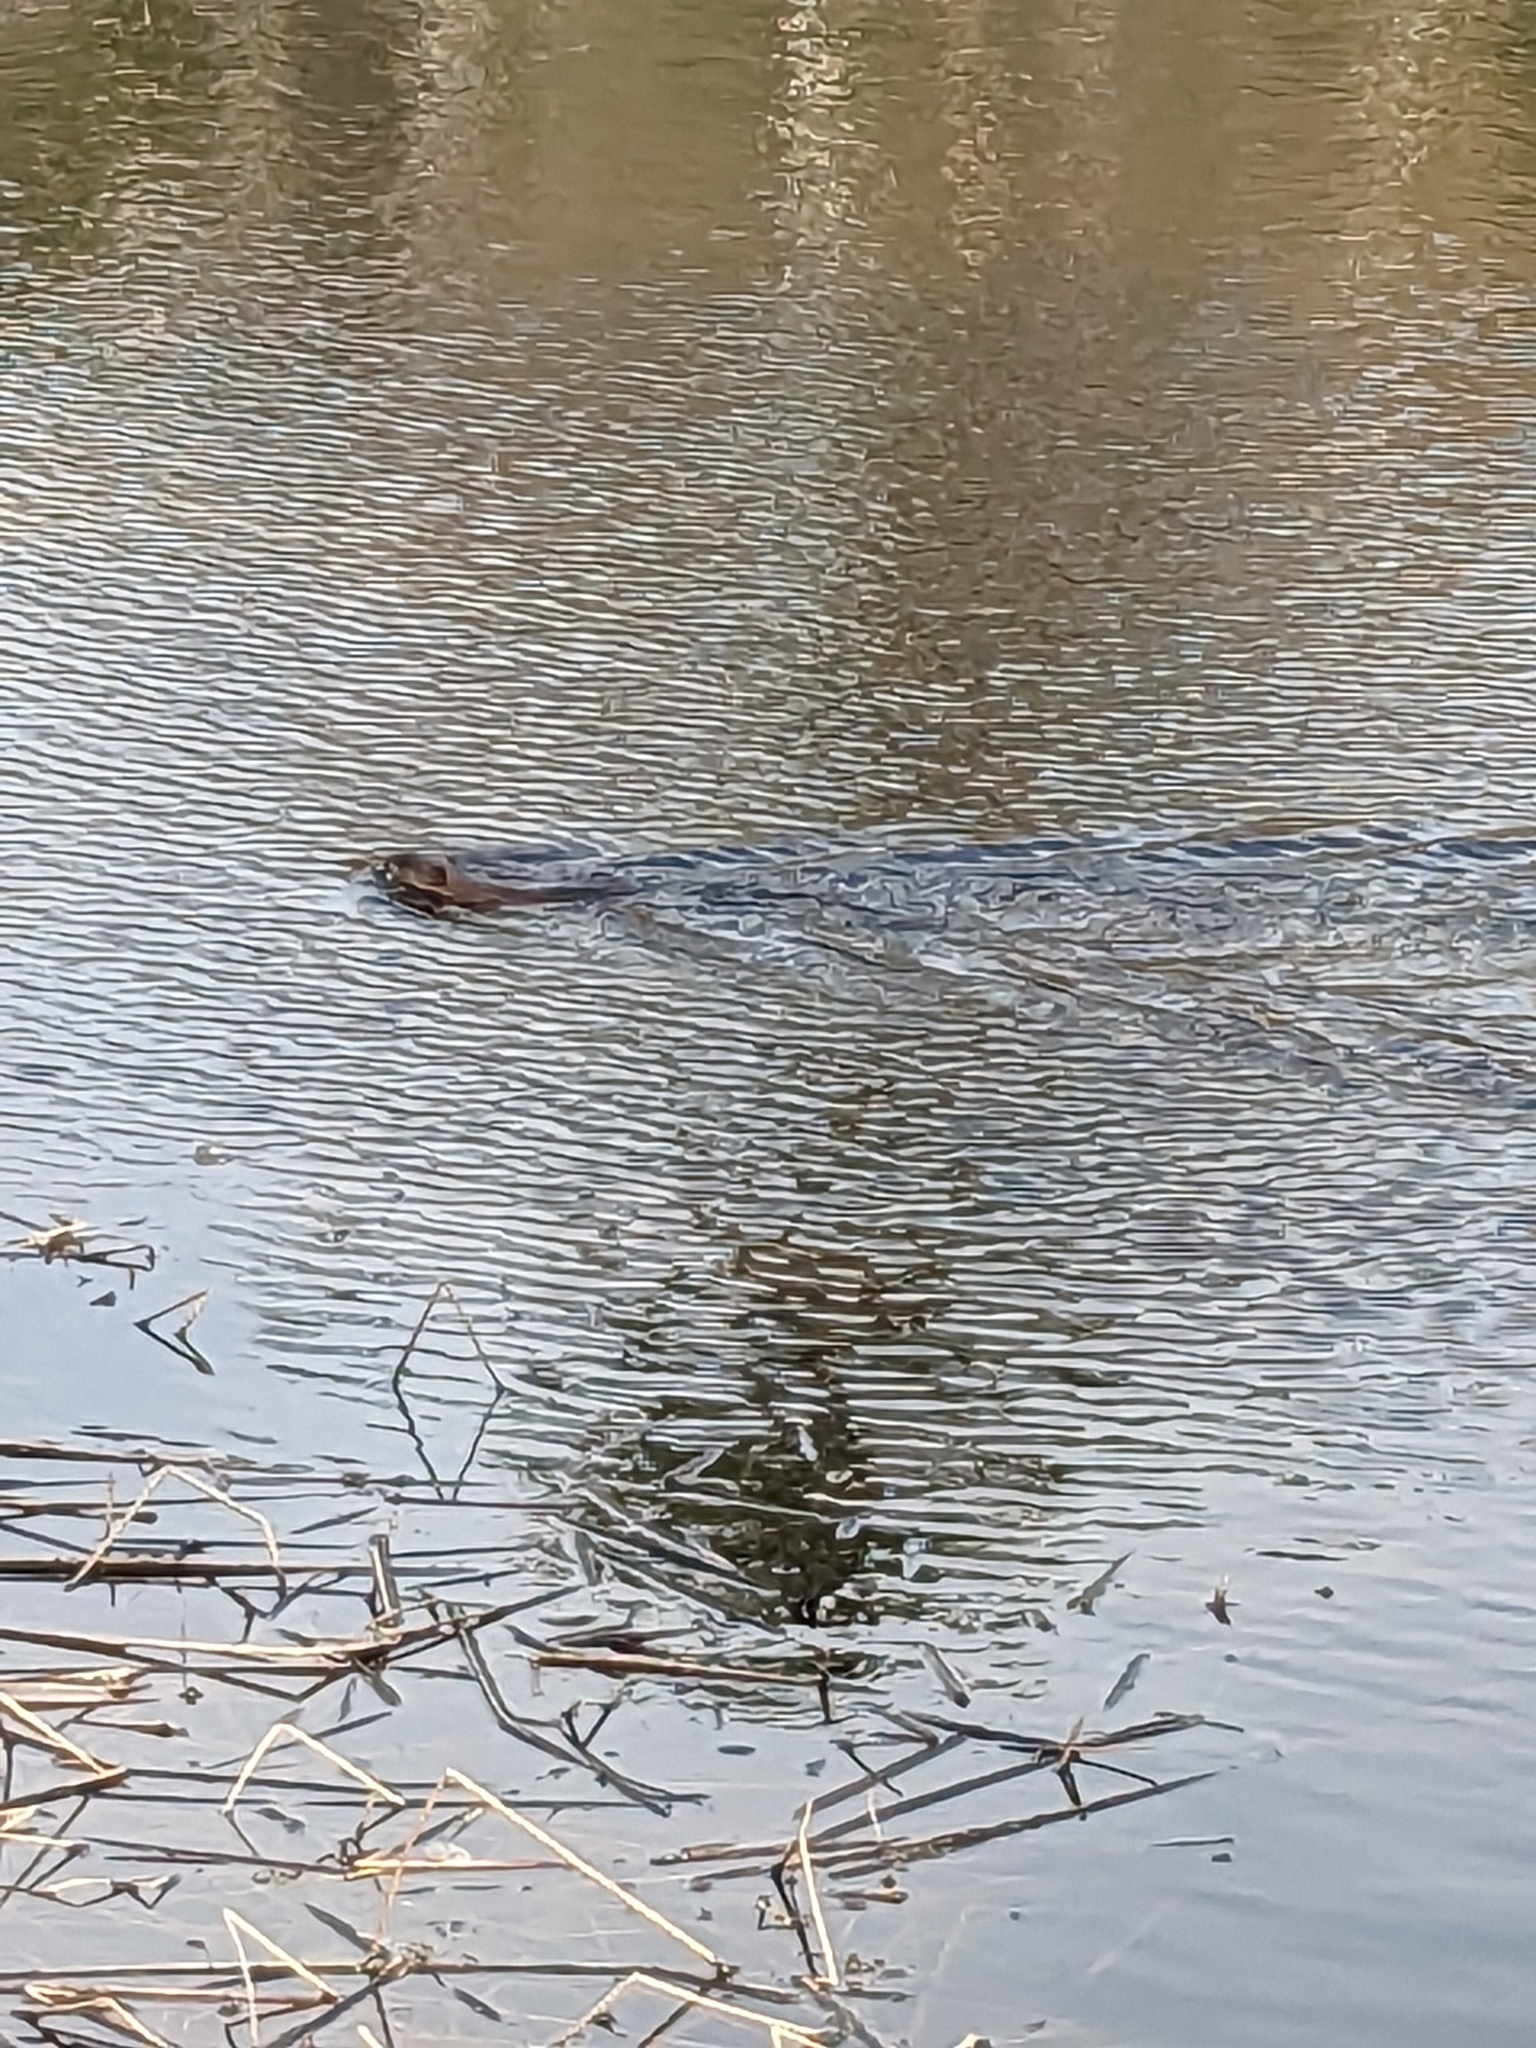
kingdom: Animalia
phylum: Chordata
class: Mammalia
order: Rodentia
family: Cricetidae
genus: Ondatra
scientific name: Ondatra zibethicus
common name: Muskrat
